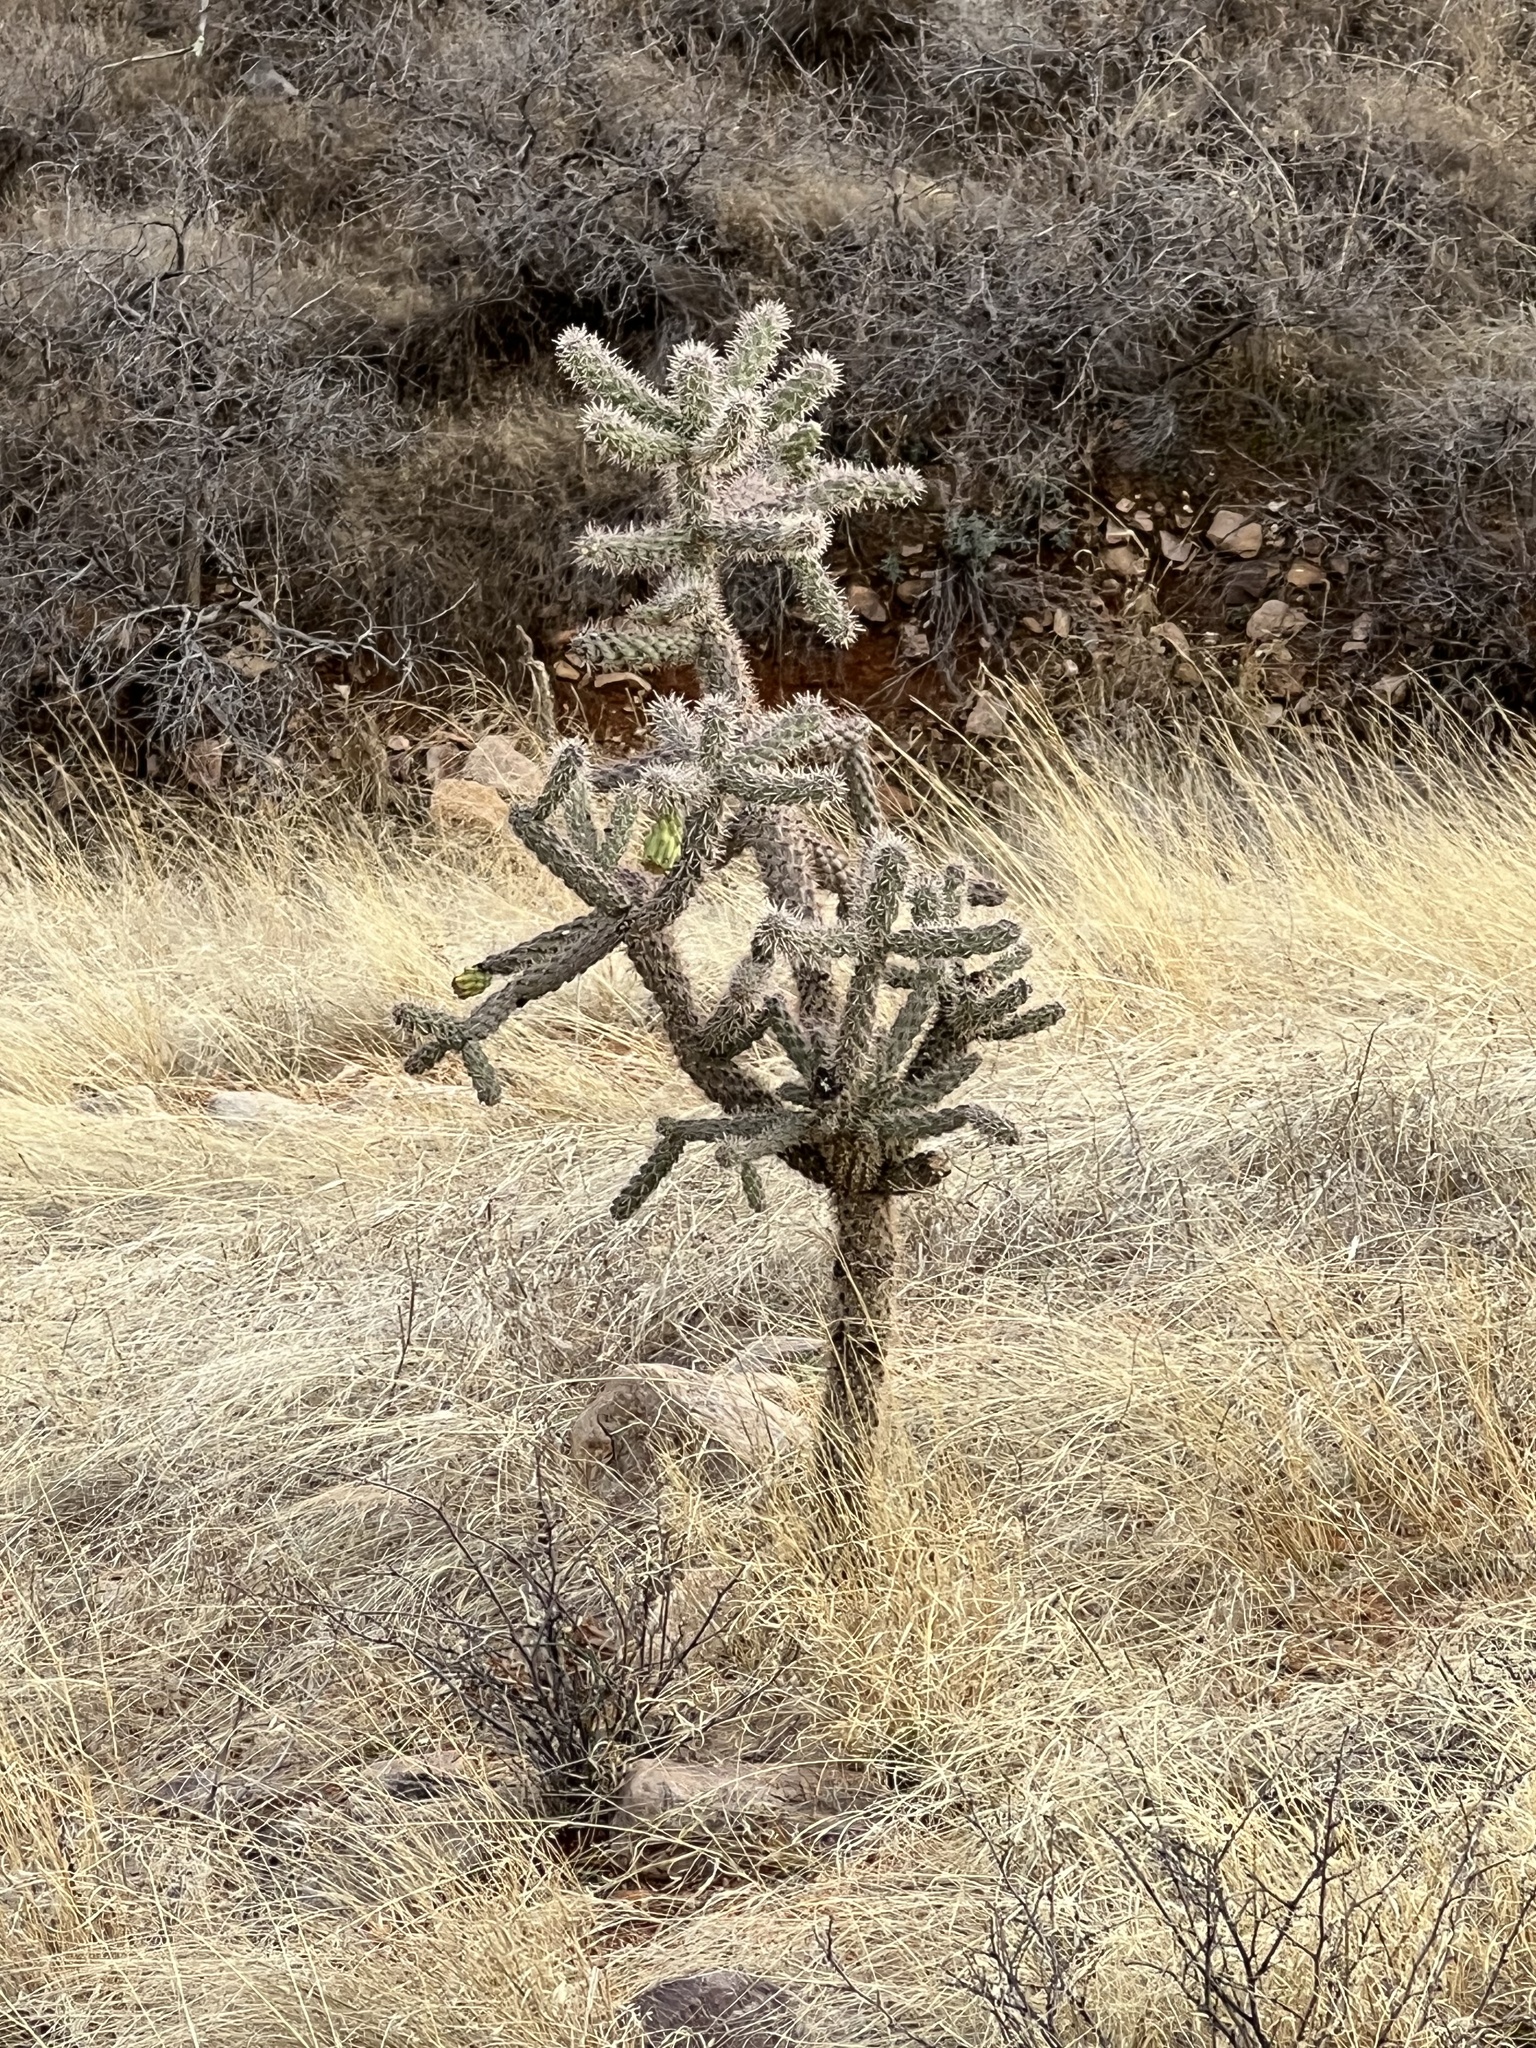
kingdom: Plantae
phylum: Tracheophyta
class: Magnoliopsida
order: Caryophyllales
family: Cactaceae
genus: Cylindropuntia
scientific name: Cylindropuntia imbricata
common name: Candelabrum cactus
